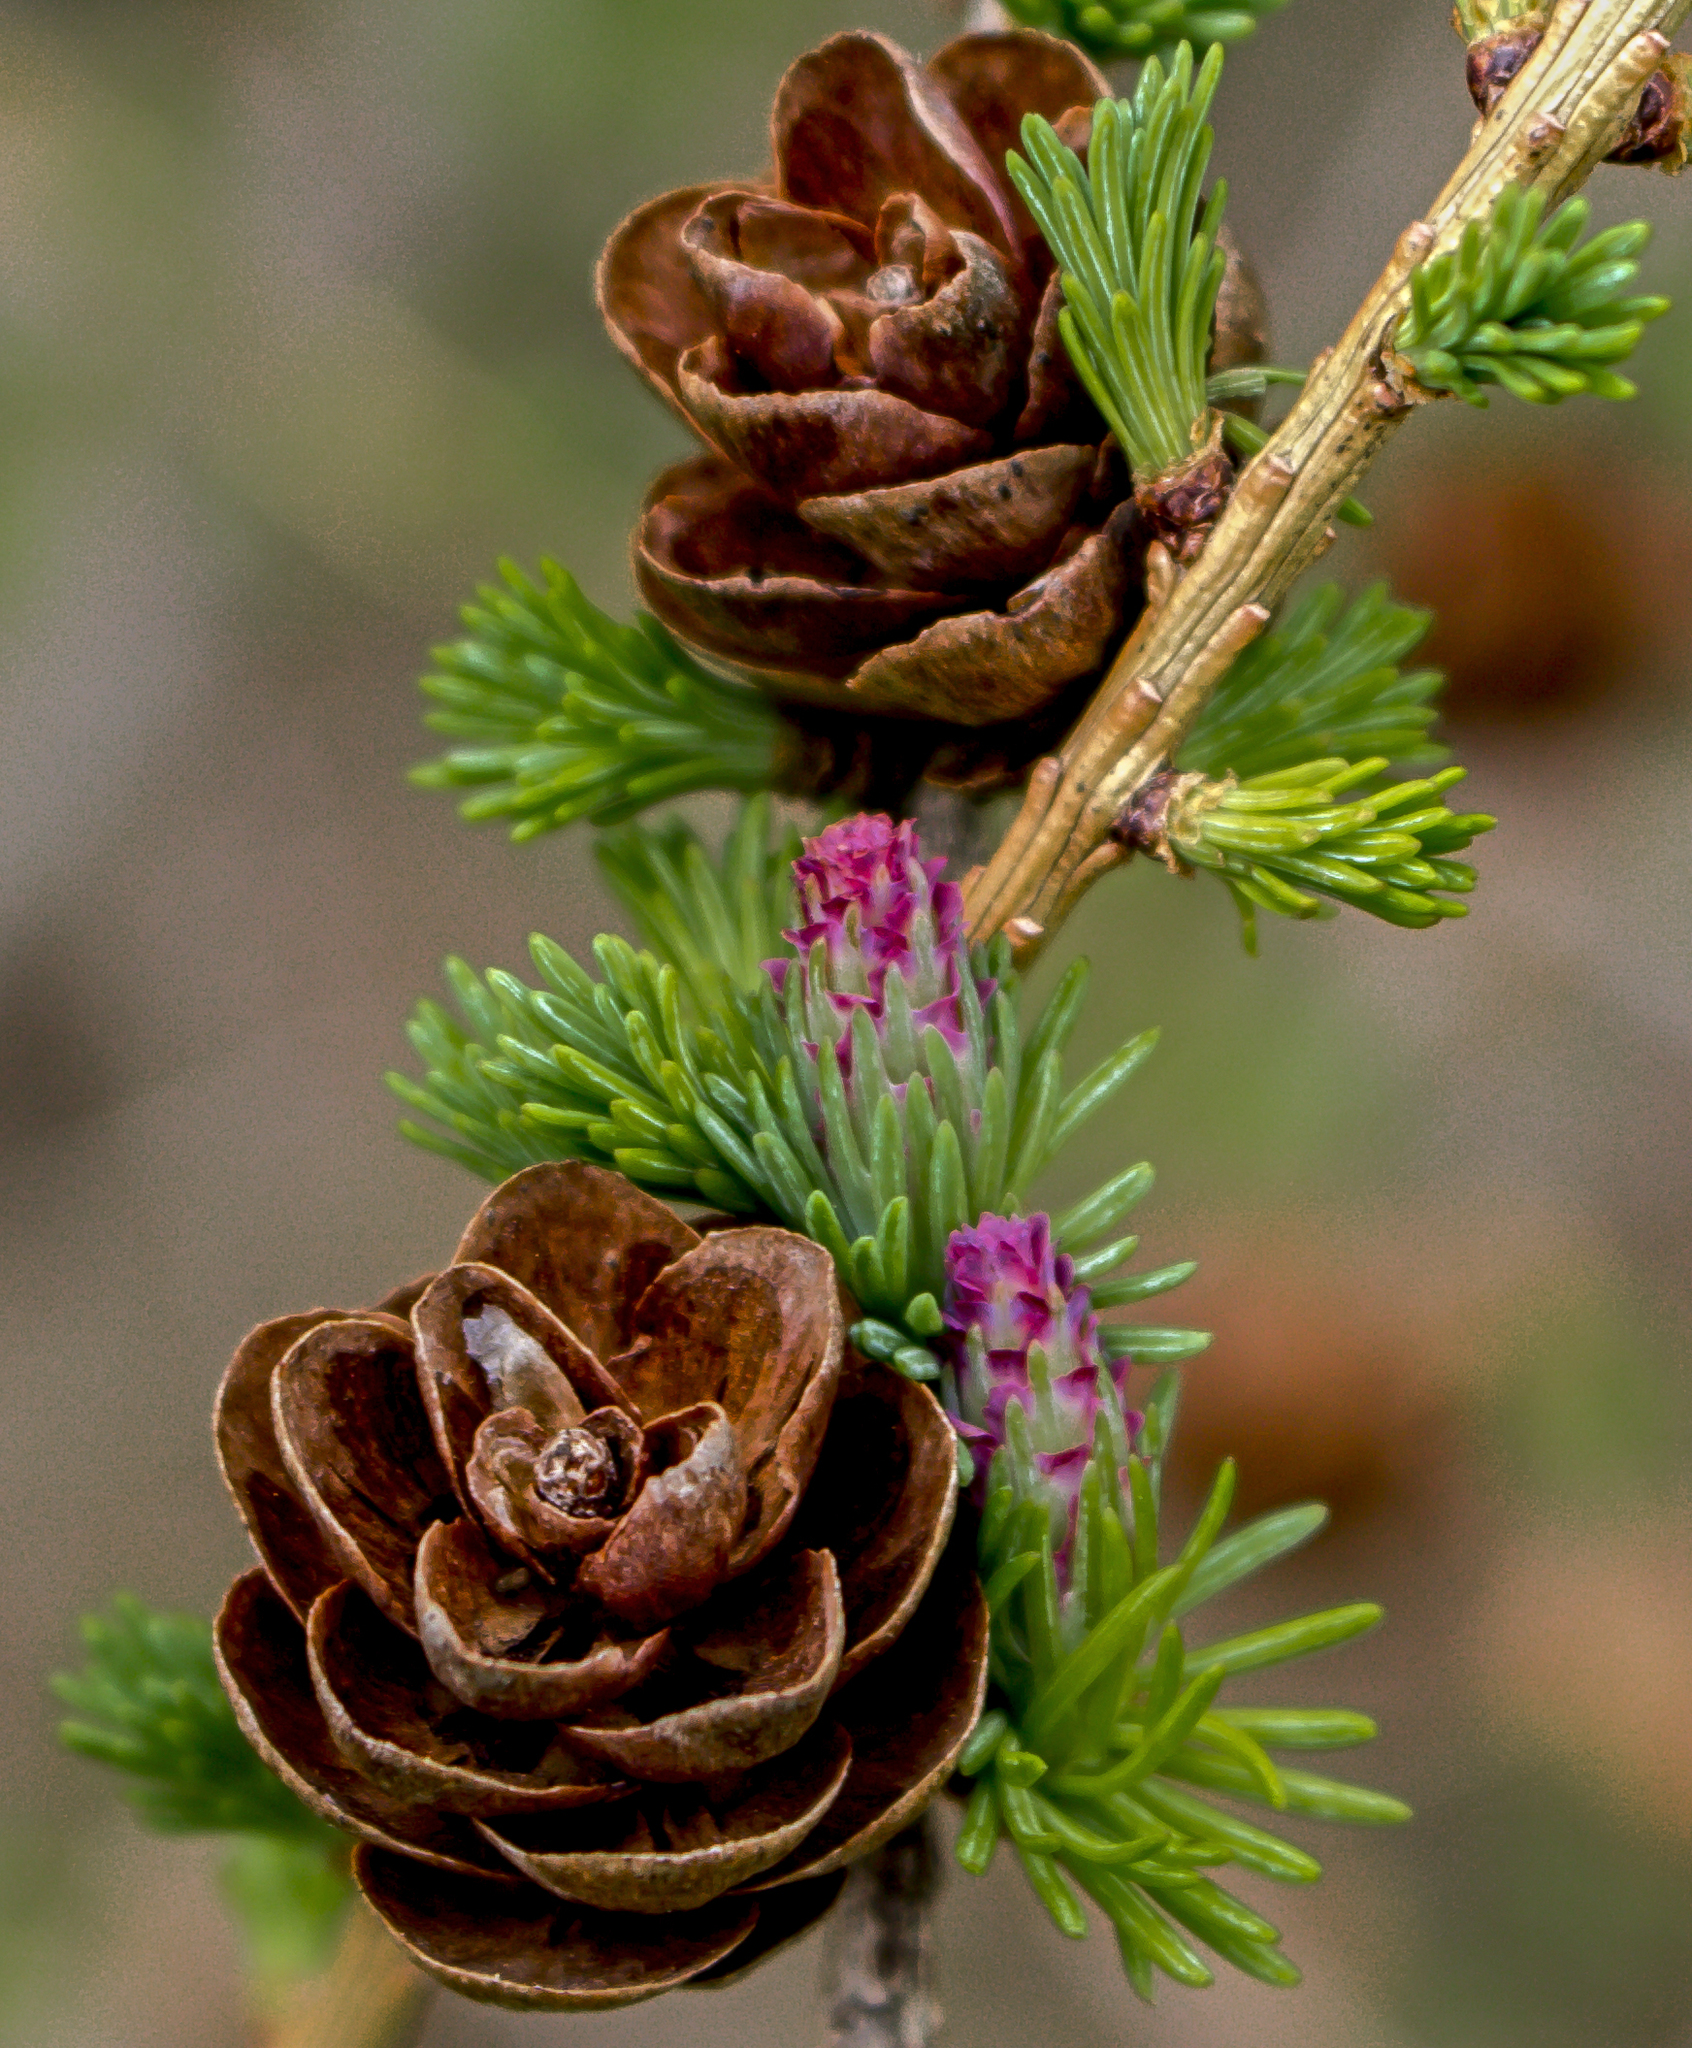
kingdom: Plantae
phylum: Tracheophyta
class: Pinopsida
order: Pinales
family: Pinaceae
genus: Larix
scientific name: Larix laricina
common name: American larch
